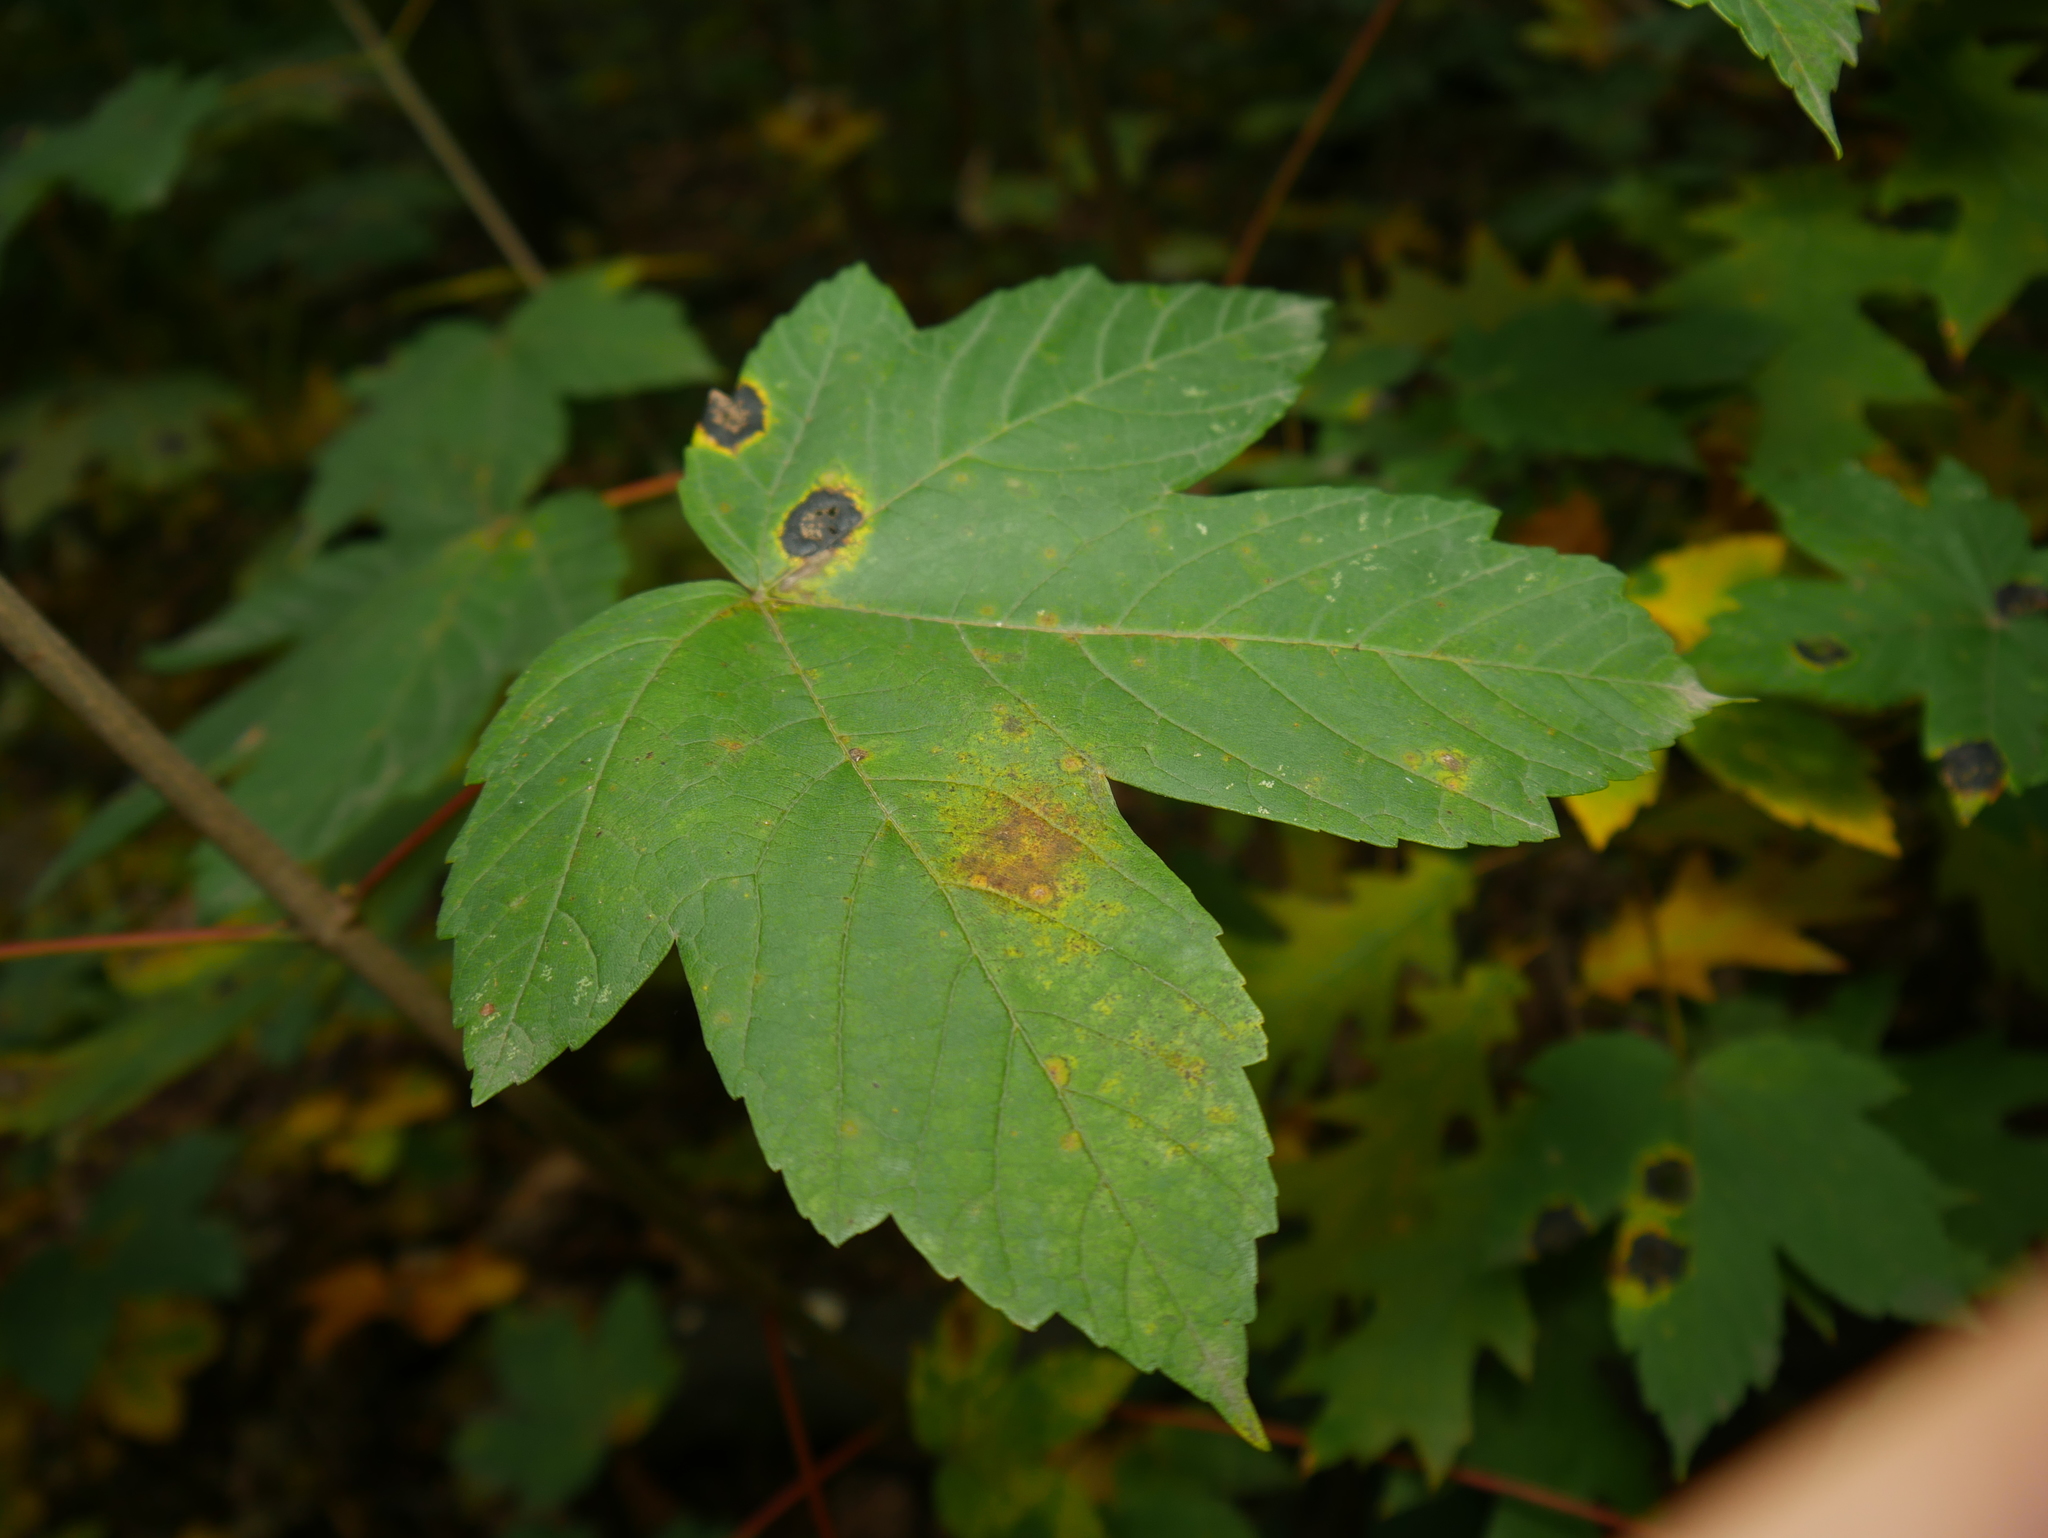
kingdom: Plantae
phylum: Tracheophyta
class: Magnoliopsida
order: Sapindales
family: Sapindaceae
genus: Acer
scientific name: Acer pseudoplatanus
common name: Sycamore
